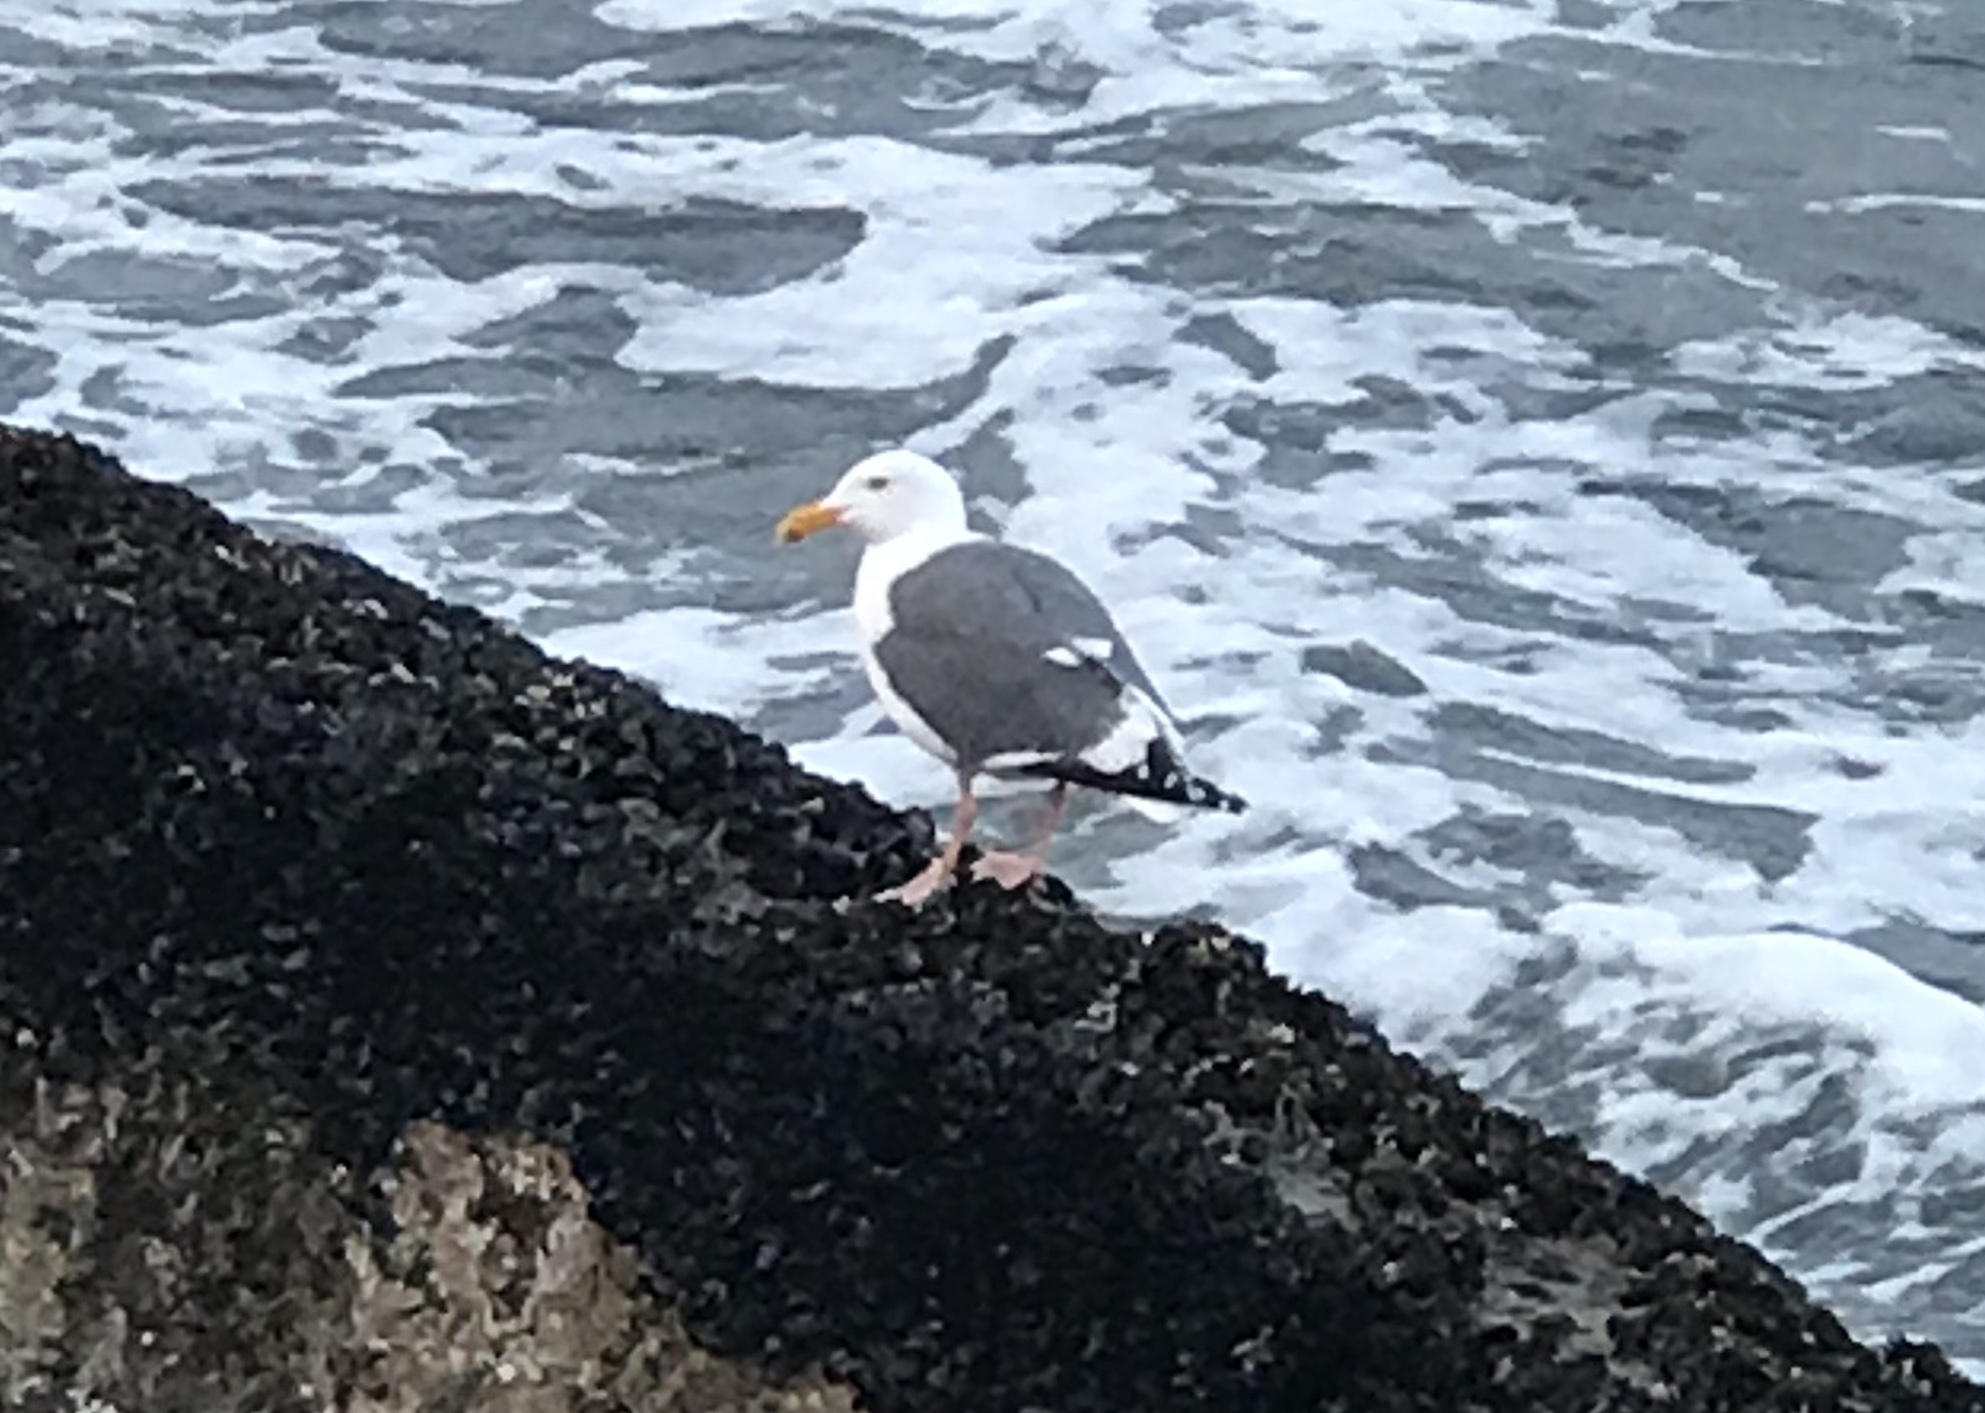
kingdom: Animalia
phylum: Chordata
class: Aves
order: Charadriiformes
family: Laridae
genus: Larus
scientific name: Larus occidentalis
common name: Western gull
